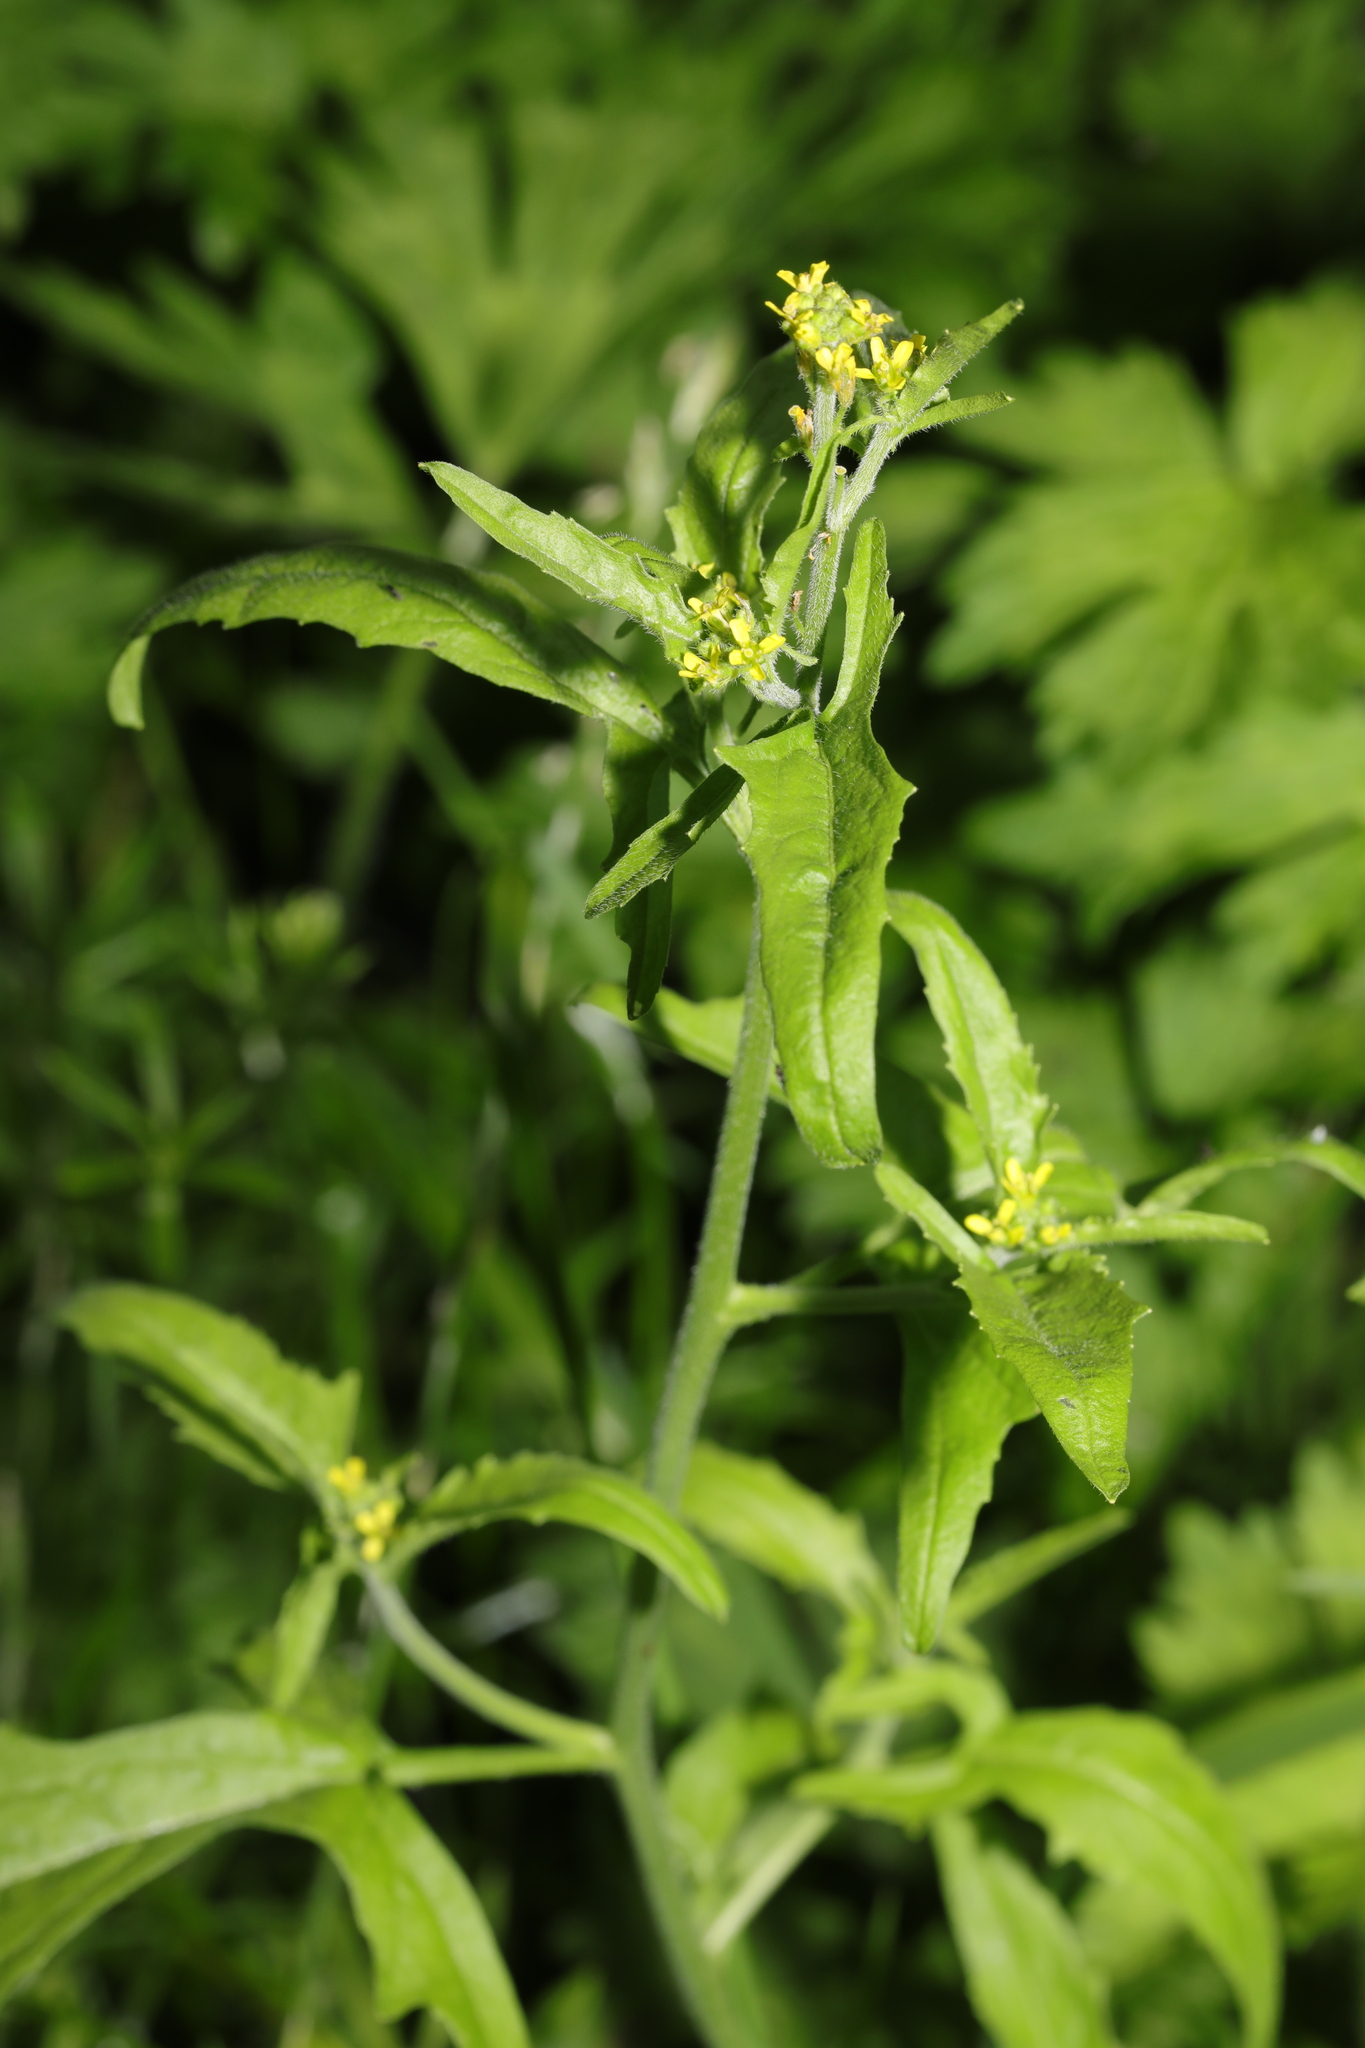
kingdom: Plantae
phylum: Tracheophyta
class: Magnoliopsida
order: Brassicales
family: Brassicaceae
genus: Sisymbrium
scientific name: Sisymbrium officinale
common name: Hedge mustard
